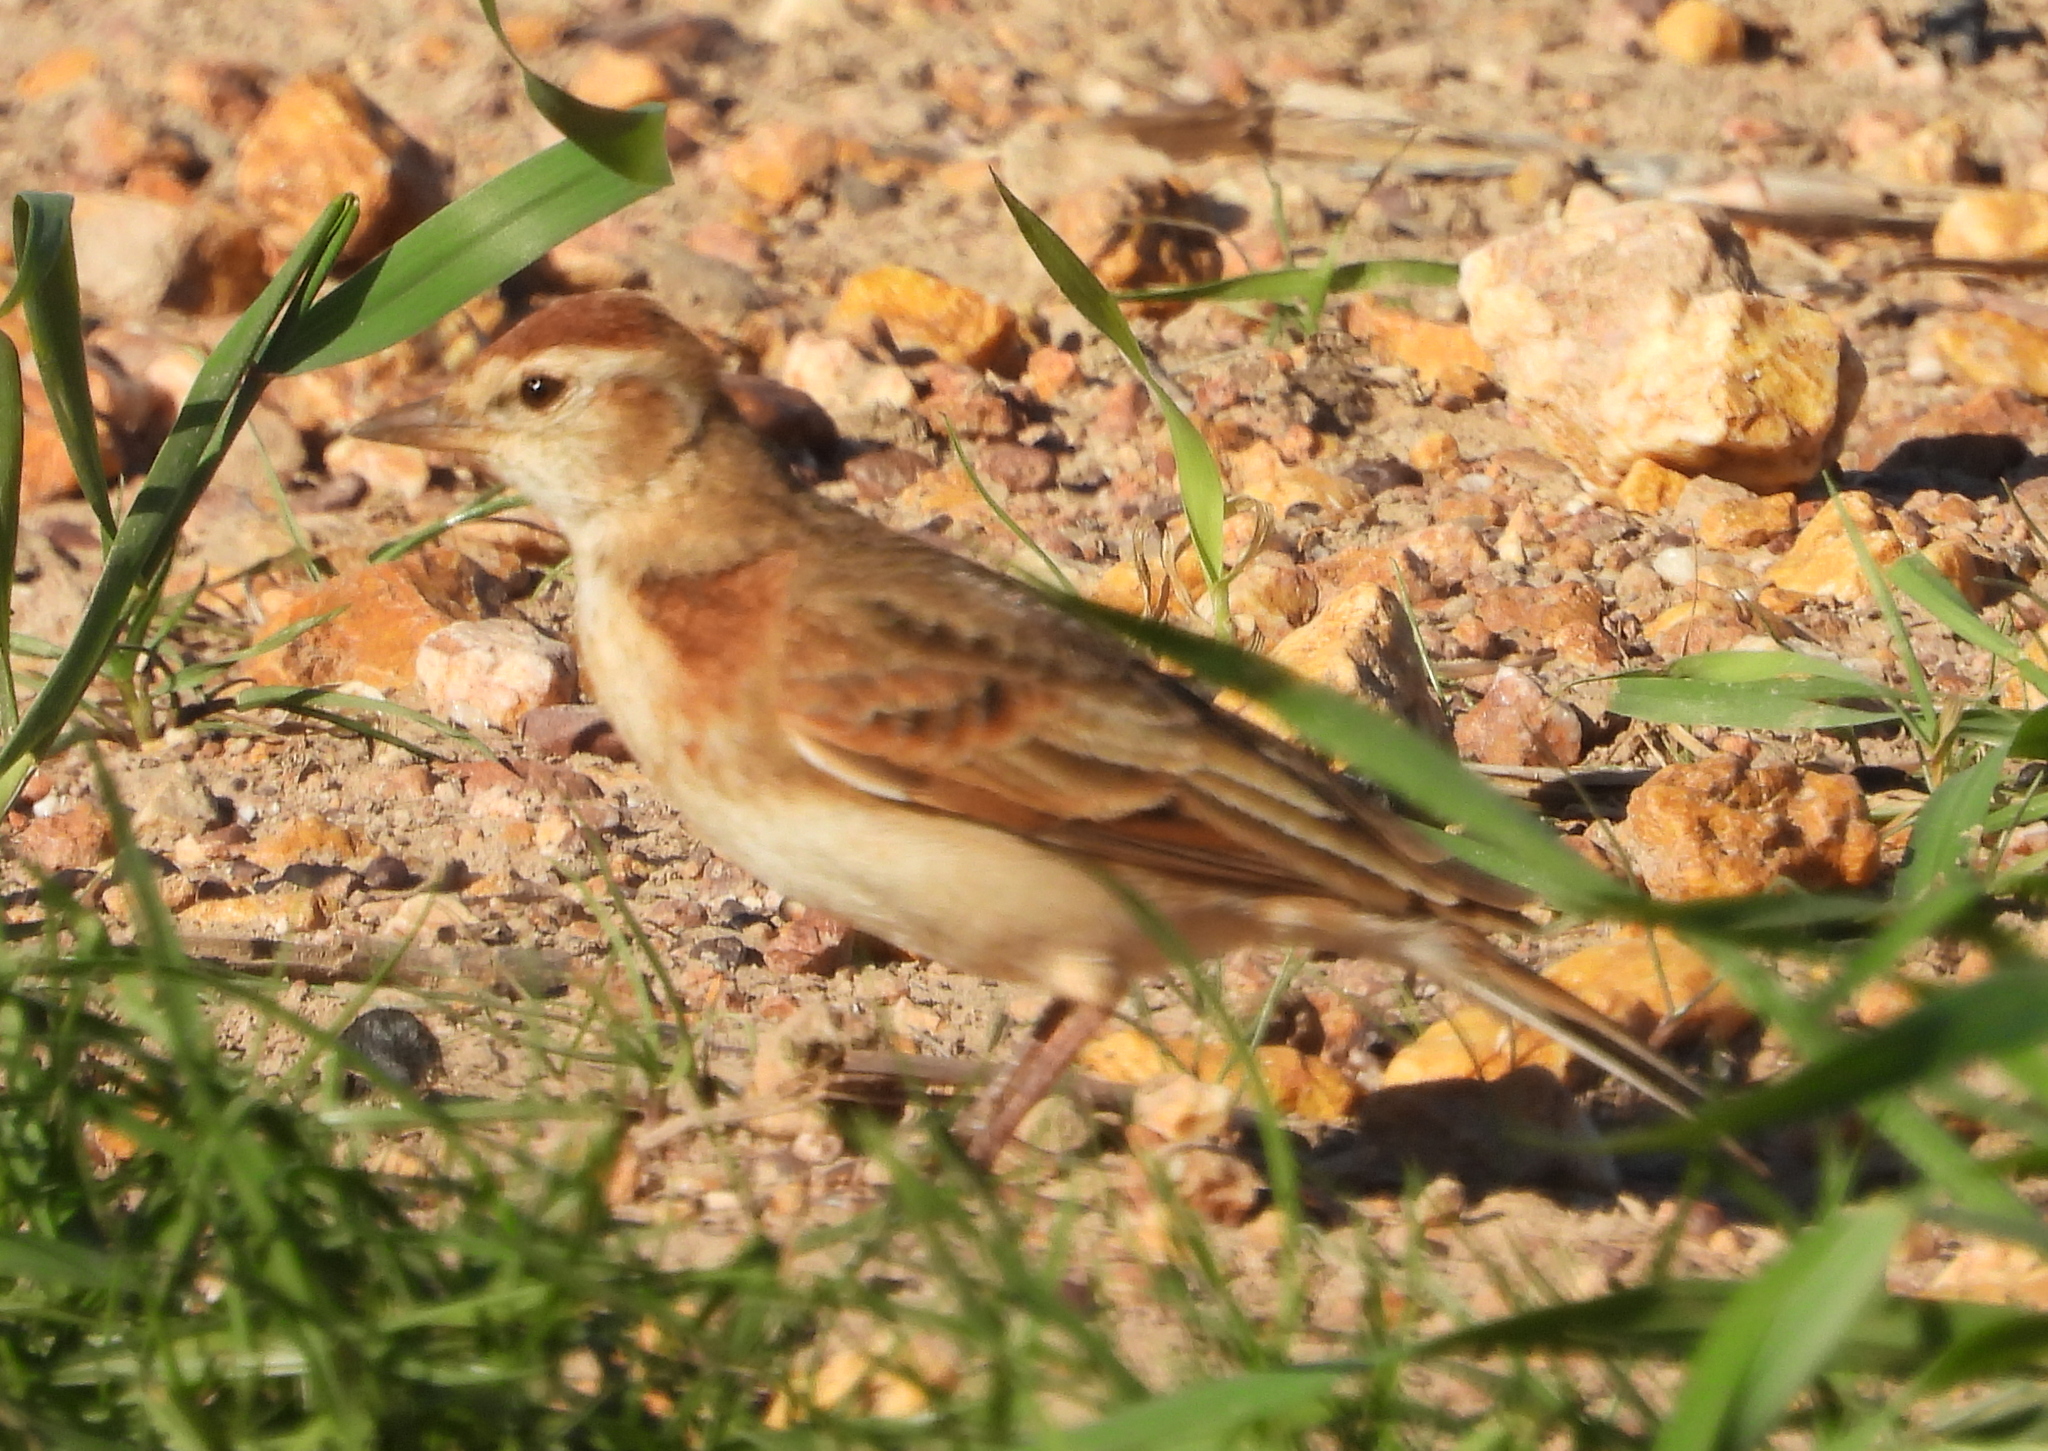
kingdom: Animalia
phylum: Chordata
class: Aves
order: Passeriformes
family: Alaudidae
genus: Calandrella
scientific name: Calandrella cinerea
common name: Red-capped lark
